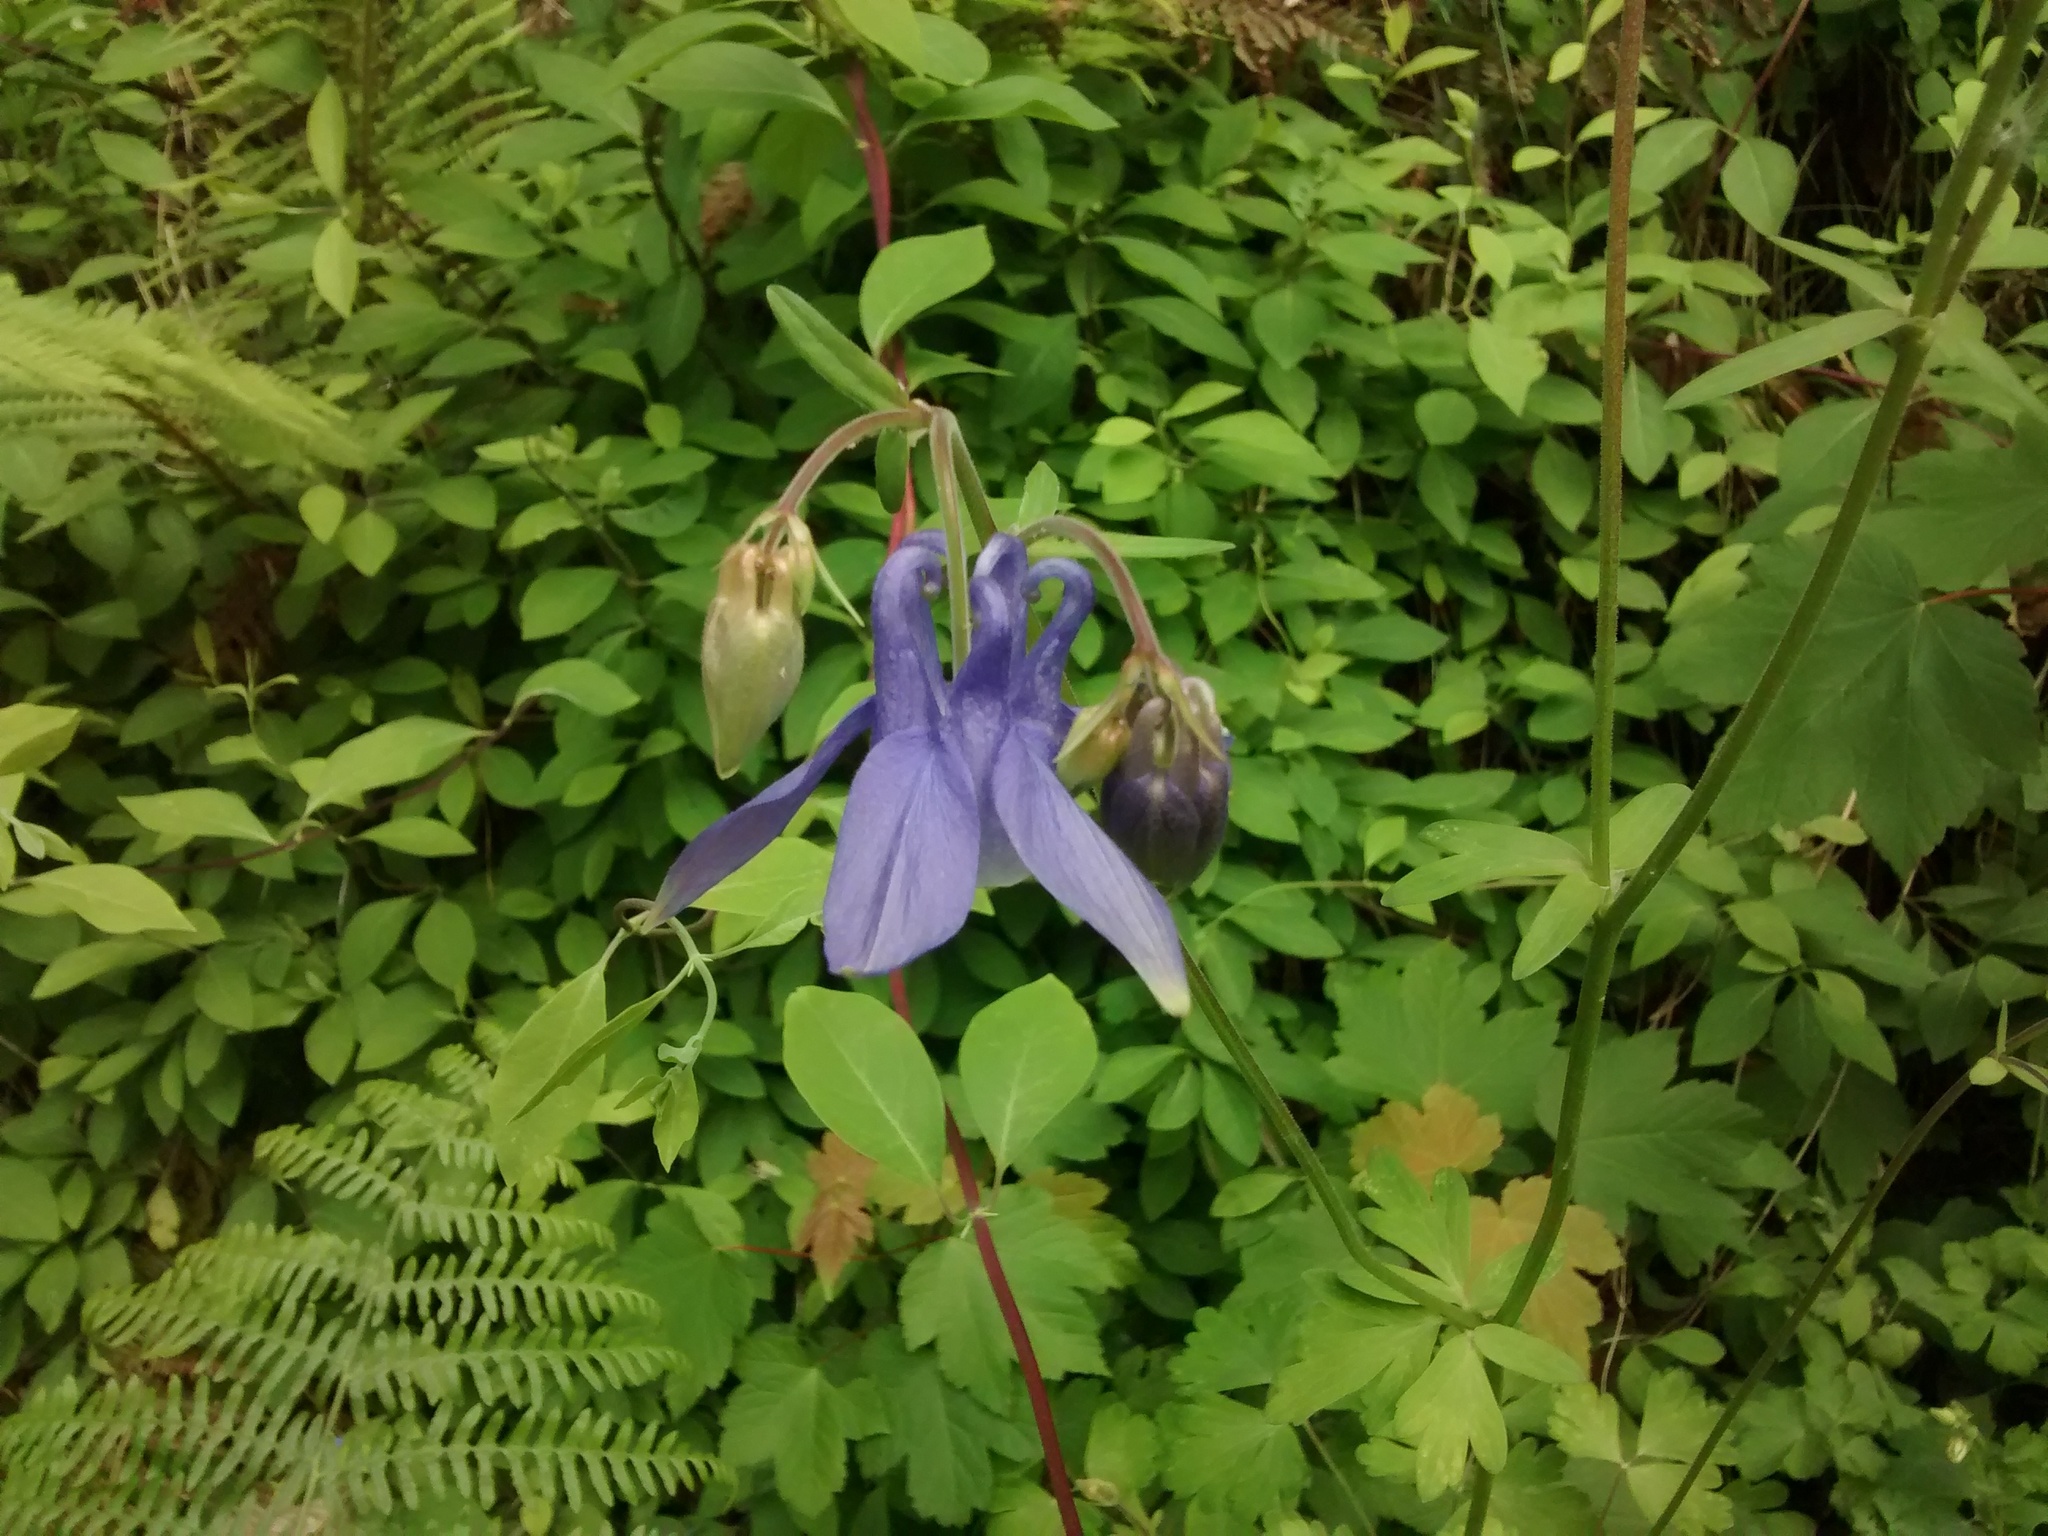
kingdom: Plantae
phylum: Tracheophyta
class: Magnoliopsida
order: Ranunculales
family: Ranunculaceae
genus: Aquilegia
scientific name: Aquilegia vulgaris
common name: Columbine
